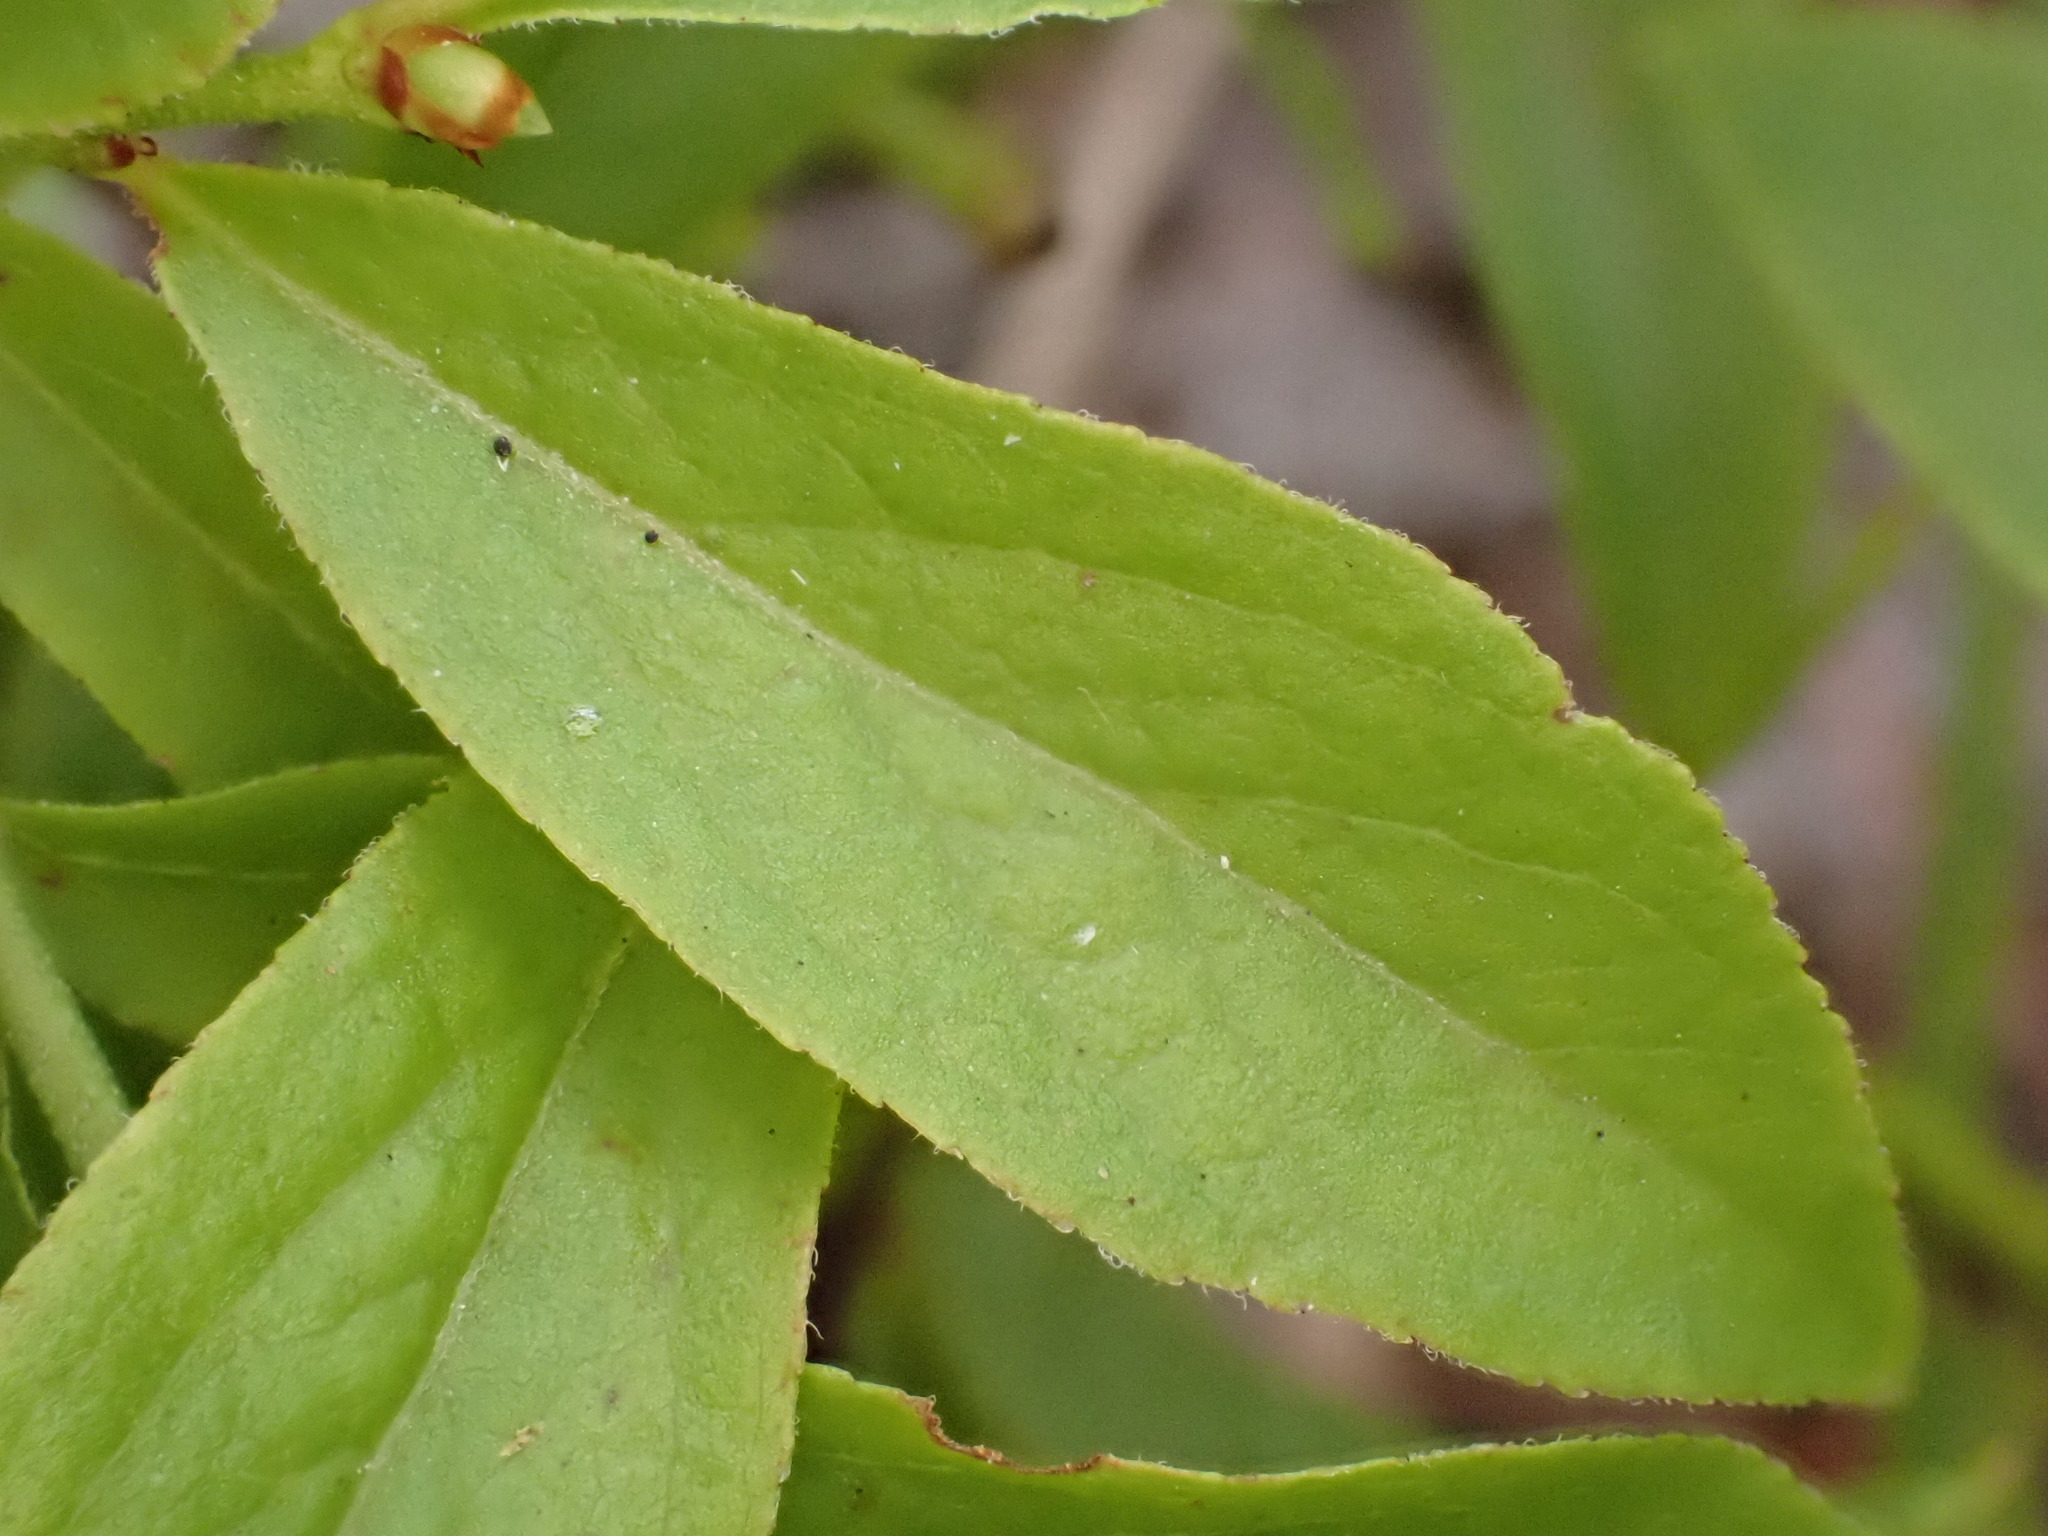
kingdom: Plantae
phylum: Tracheophyta
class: Magnoliopsida
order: Ericales
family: Ericaceae
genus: Vaccinium
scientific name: Vaccinium angustifolium
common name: Early lowbush blueberry
